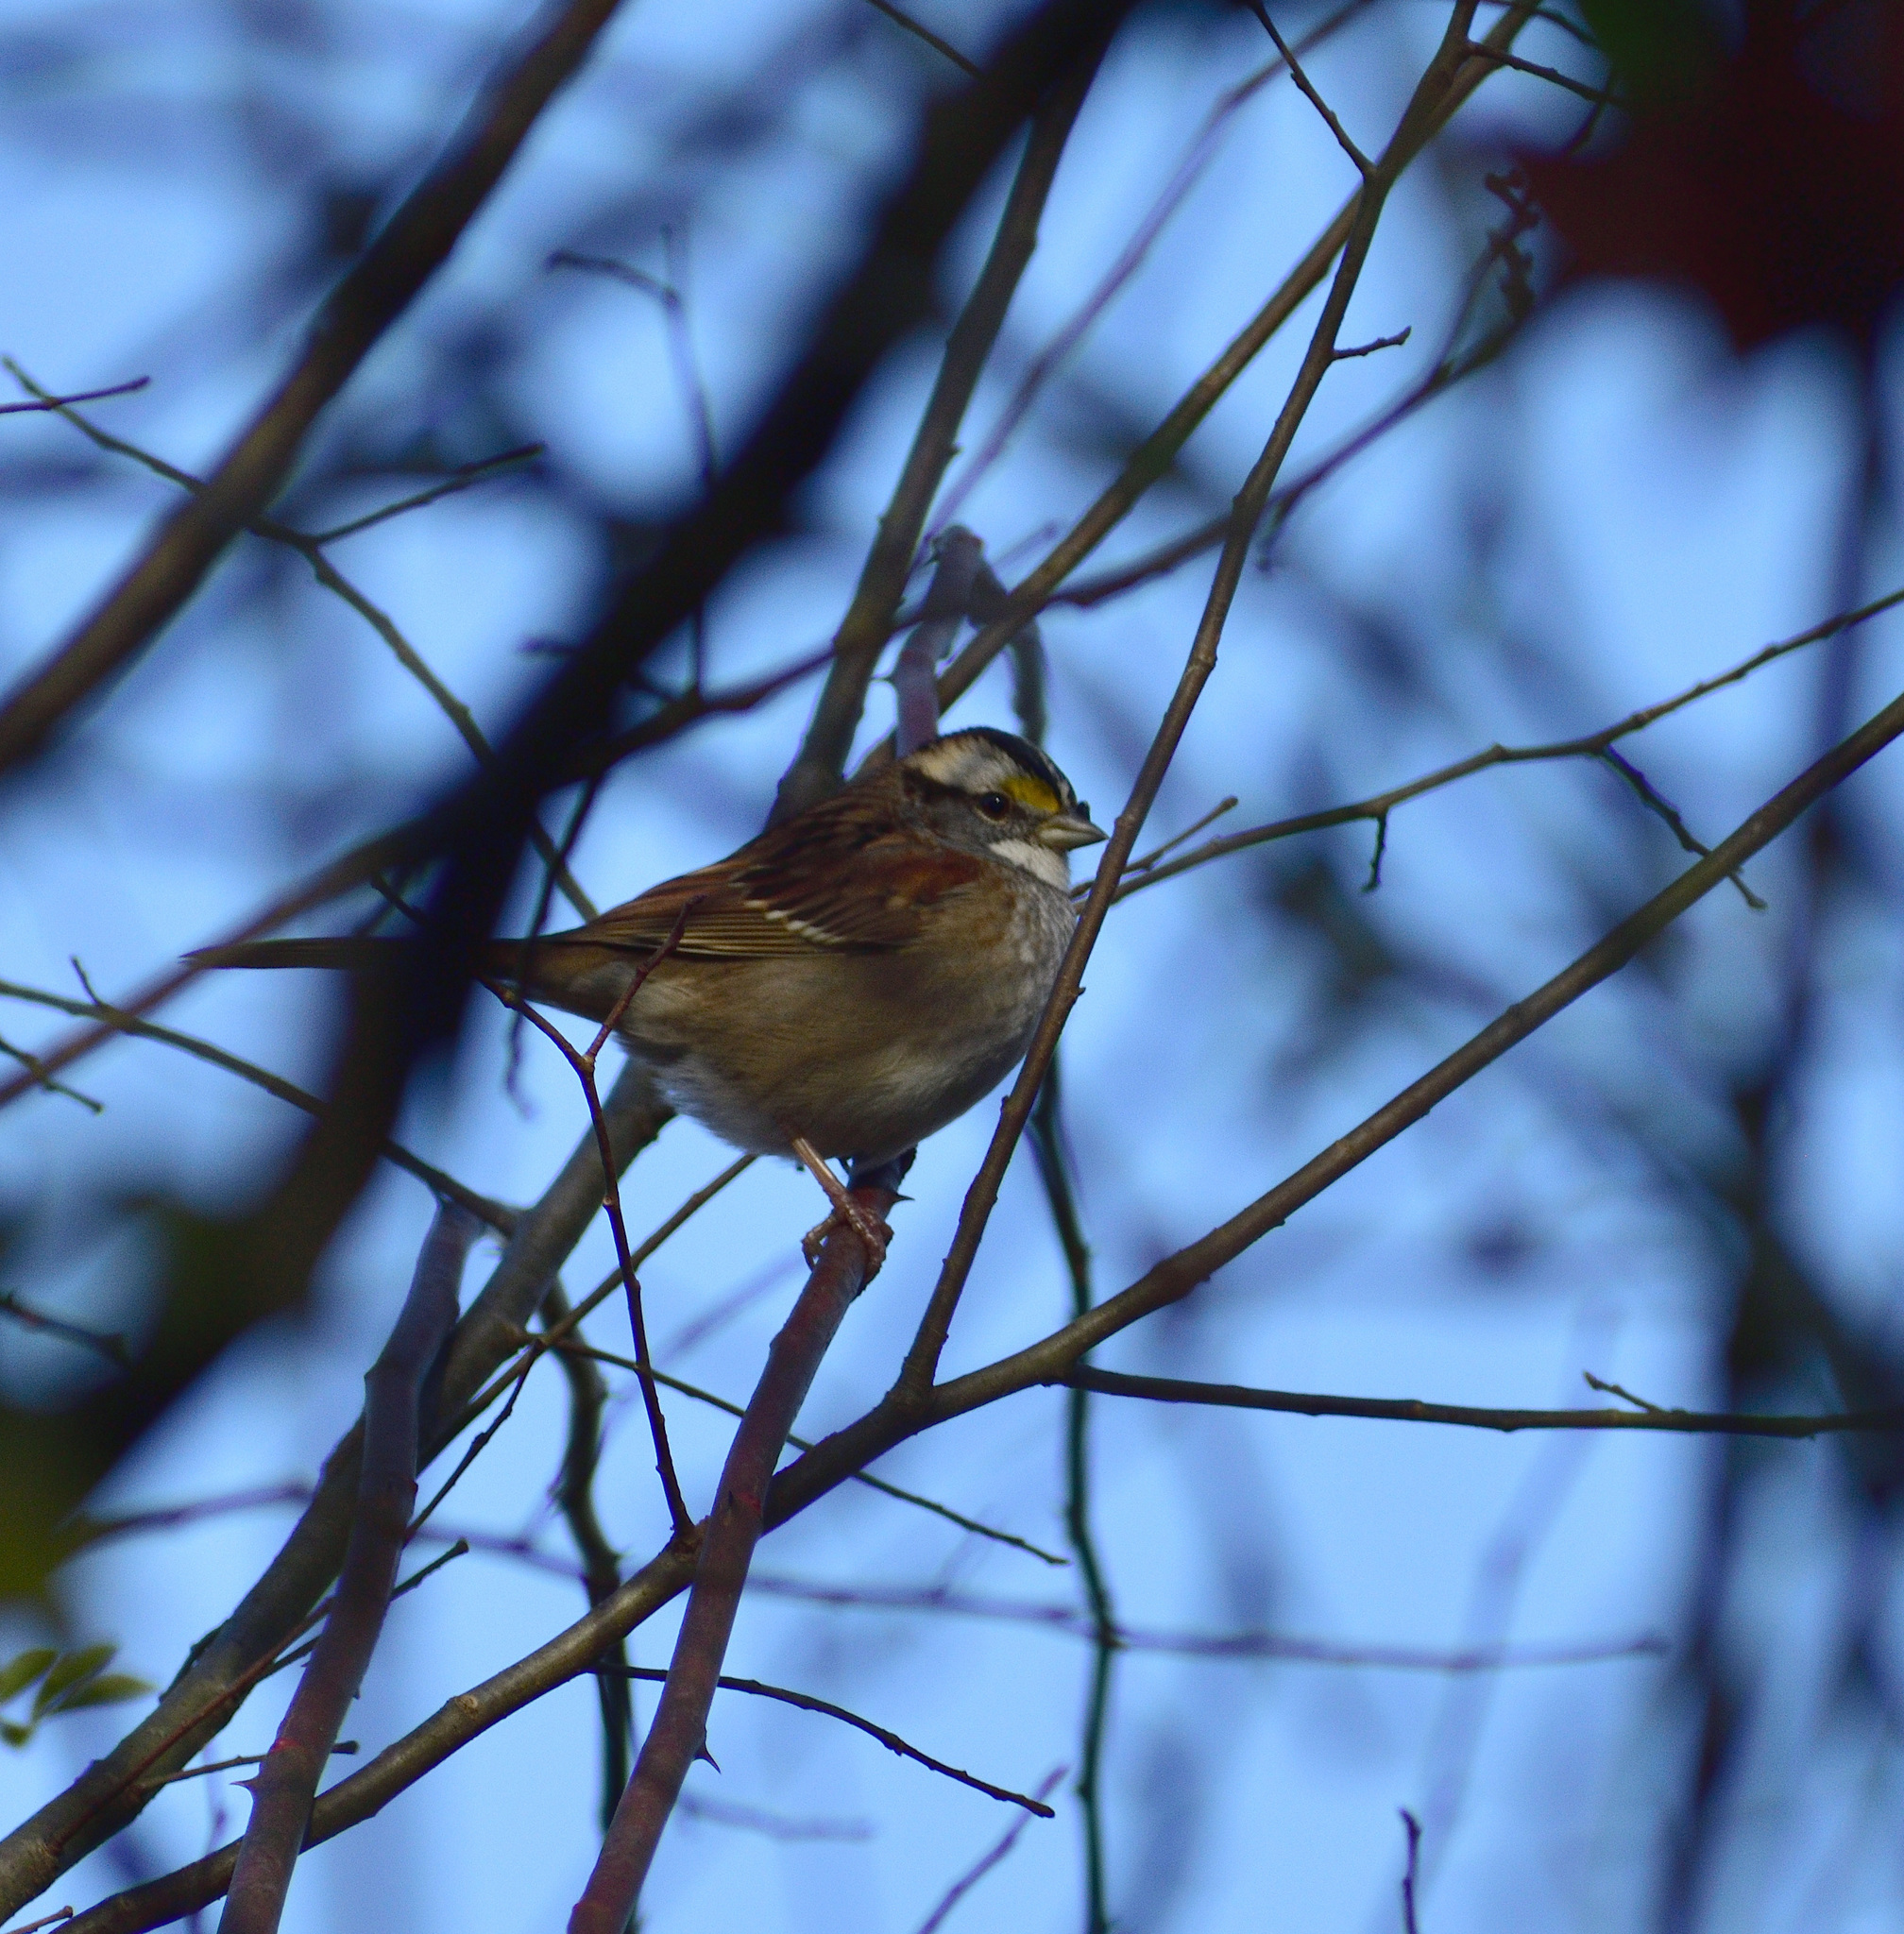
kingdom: Animalia
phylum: Chordata
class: Aves
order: Passeriformes
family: Passerellidae
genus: Zonotrichia
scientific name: Zonotrichia albicollis
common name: White-throated sparrow
